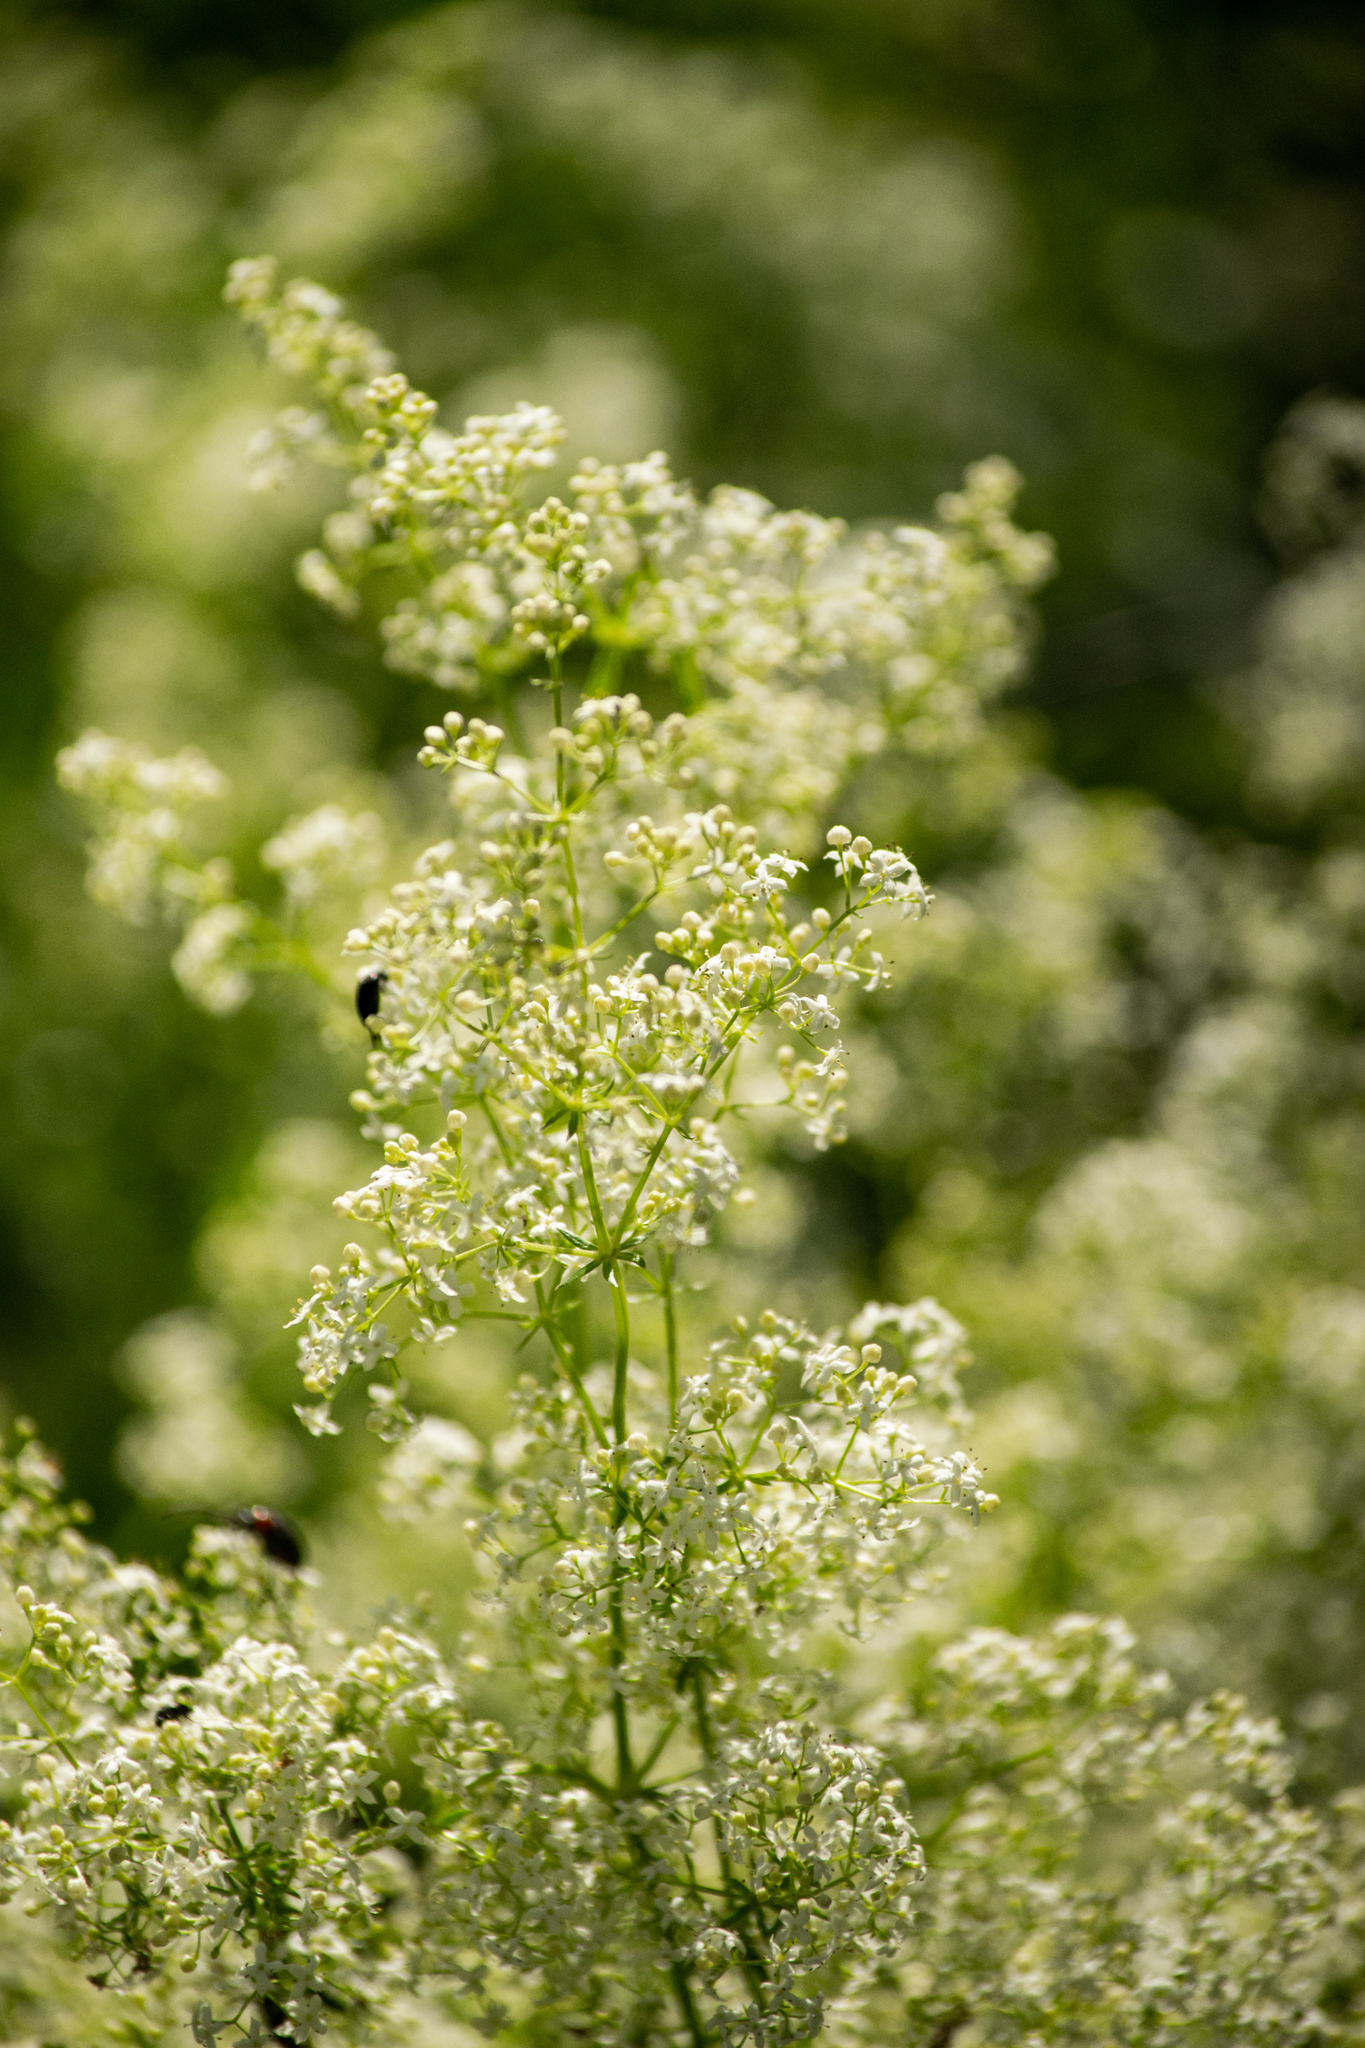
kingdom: Plantae
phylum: Tracheophyta
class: Magnoliopsida
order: Gentianales
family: Rubiaceae
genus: Galium
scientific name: Galium mollugo
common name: Hedge bedstraw
